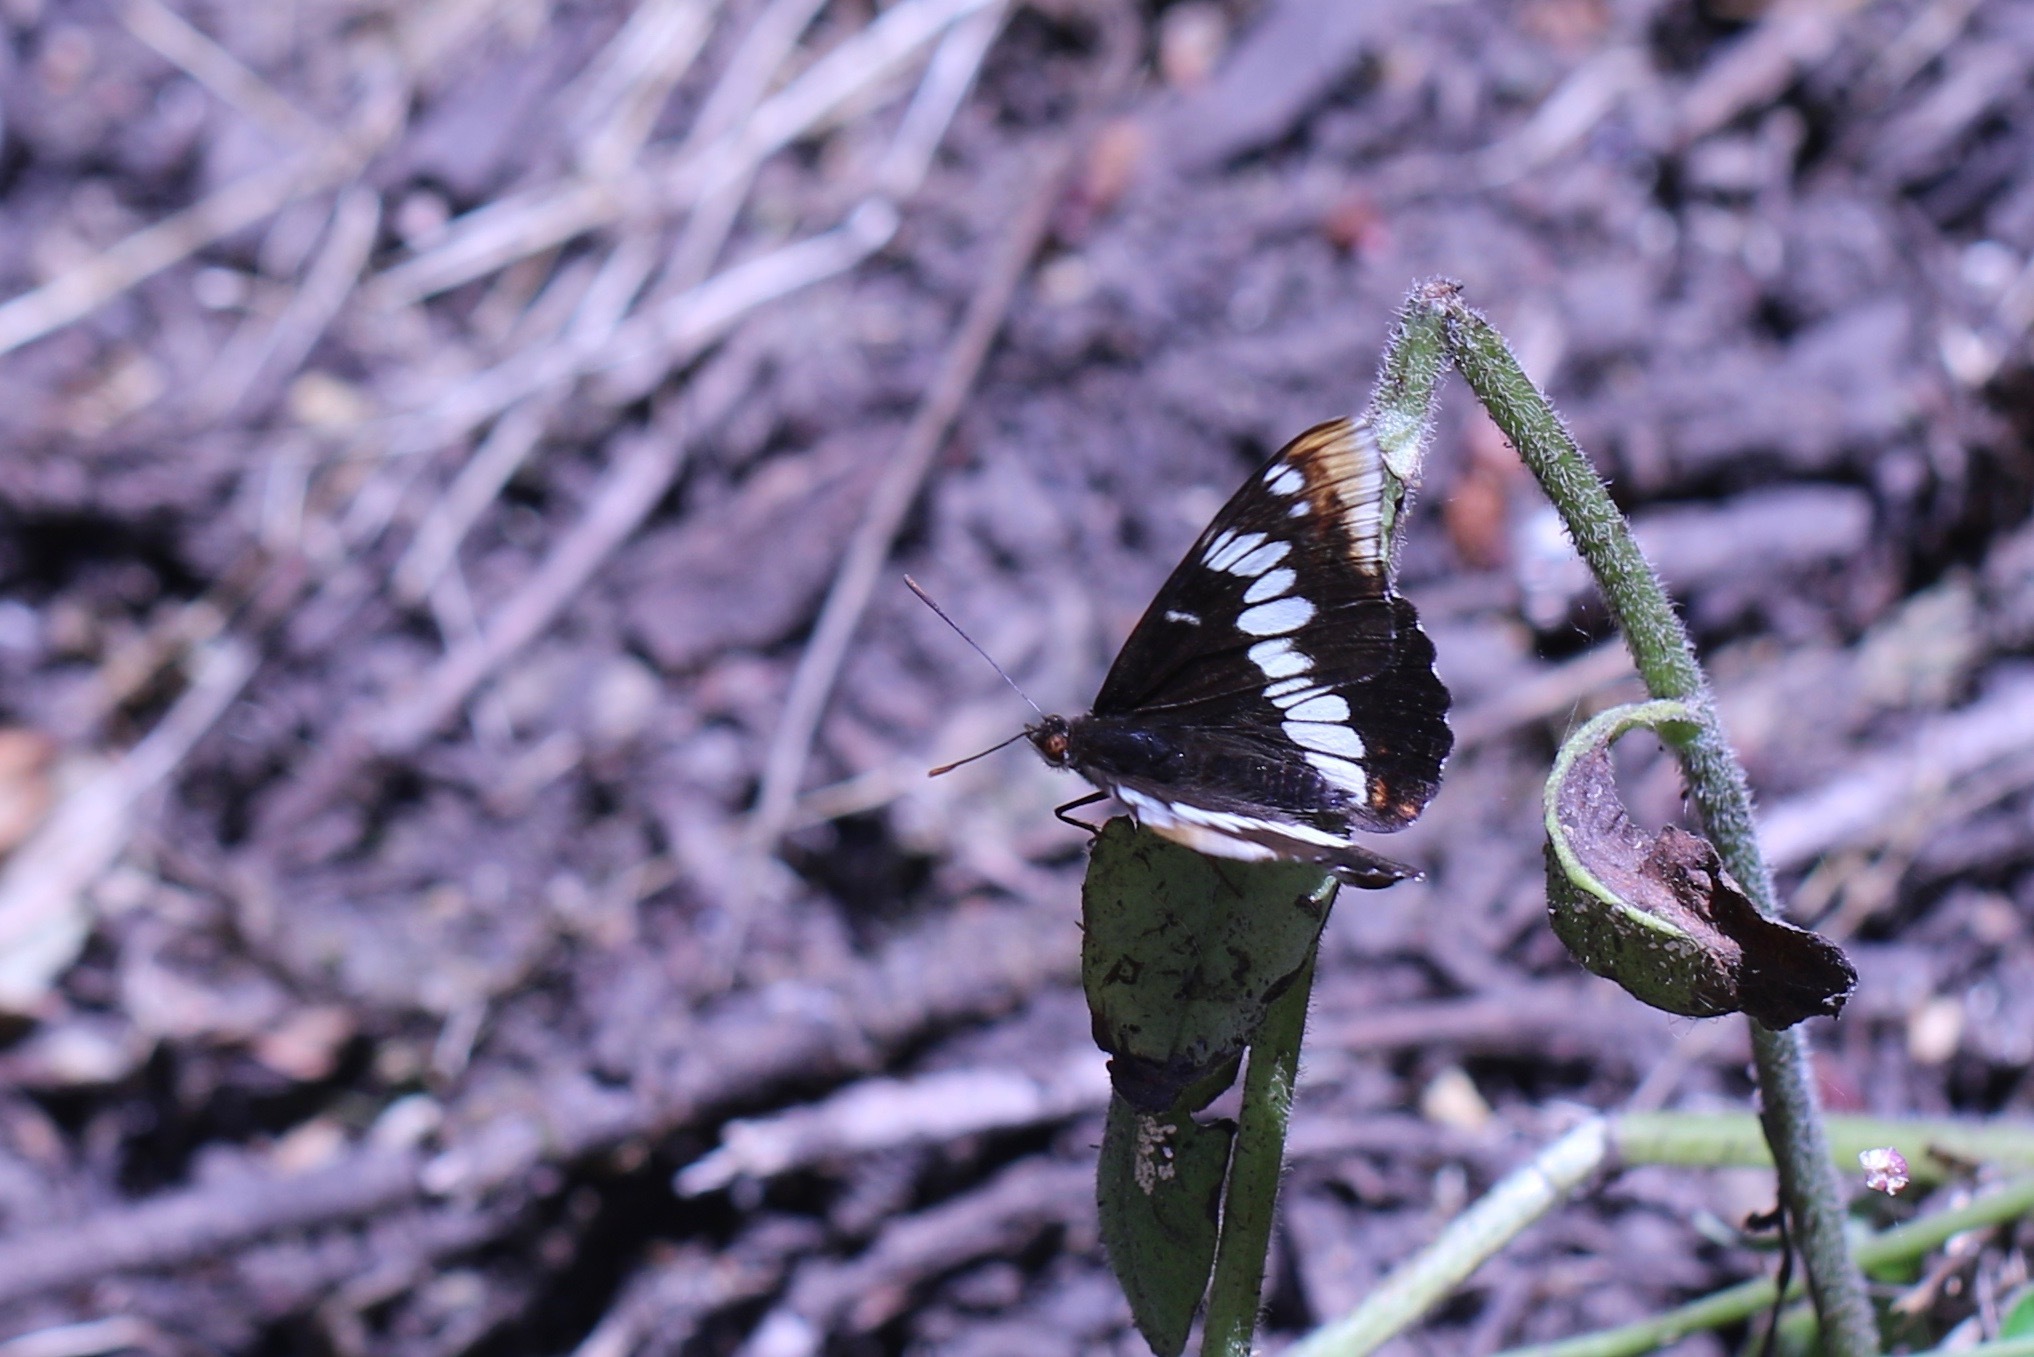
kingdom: Animalia
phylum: Arthropoda
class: Insecta
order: Lepidoptera
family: Nymphalidae
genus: Limenitis
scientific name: Limenitis lorquini
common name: Lorquin's admiral
